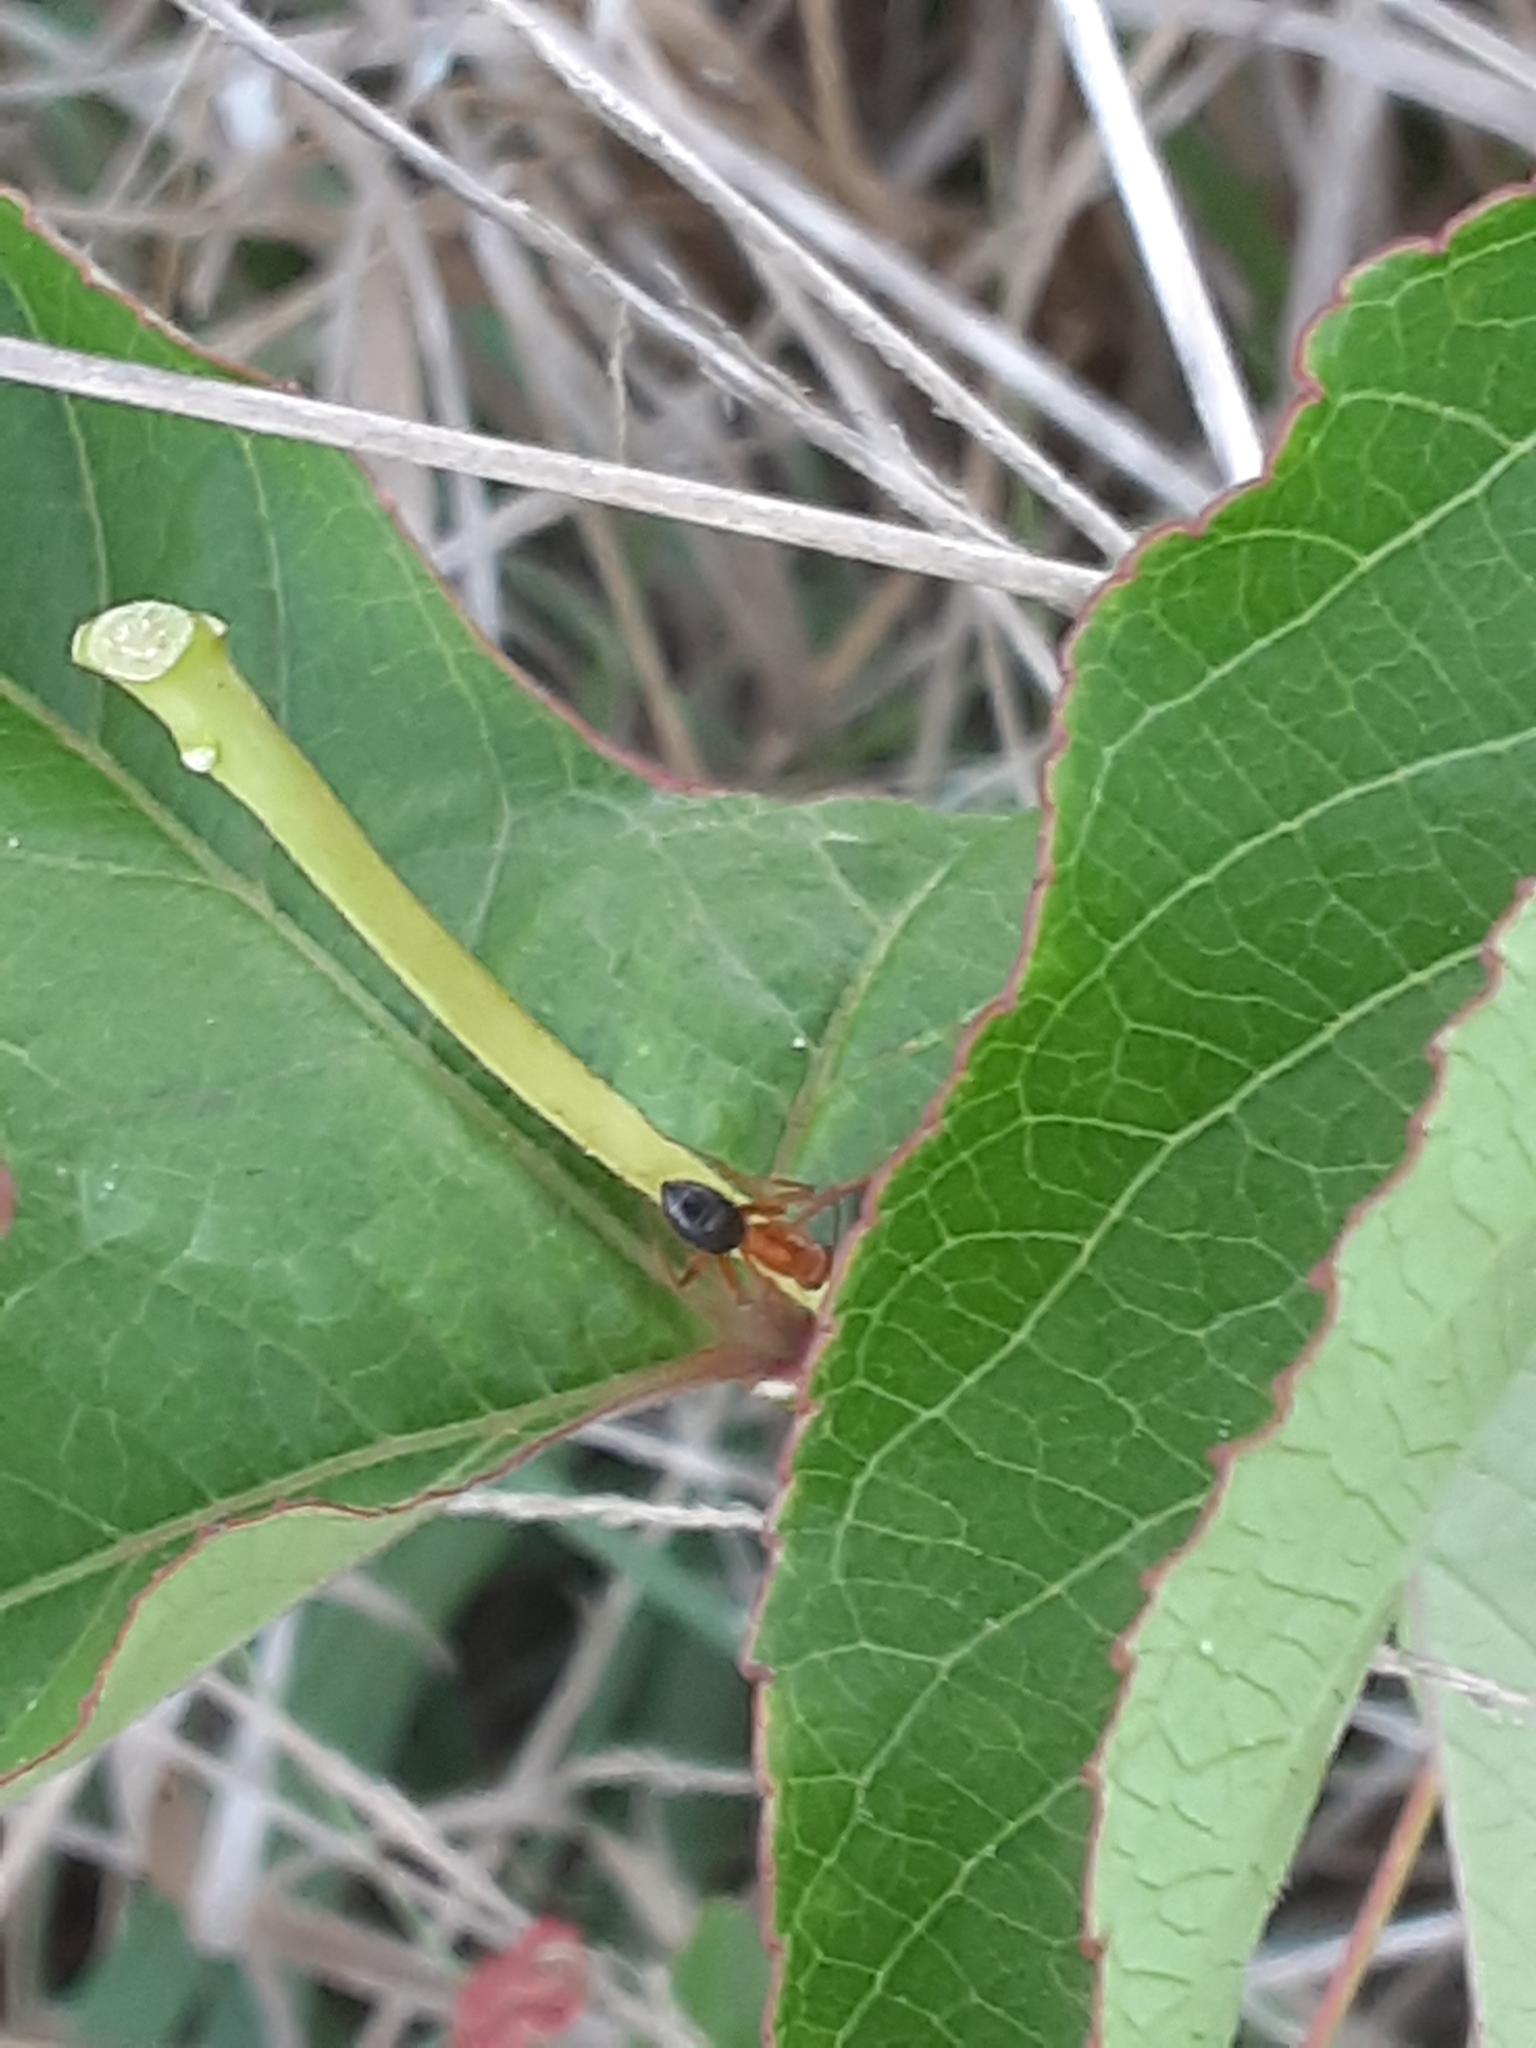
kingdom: Animalia
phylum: Arthropoda
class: Insecta
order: Hymenoptera
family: Formicidae
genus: Camponotus
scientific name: Camponotus floridanus
